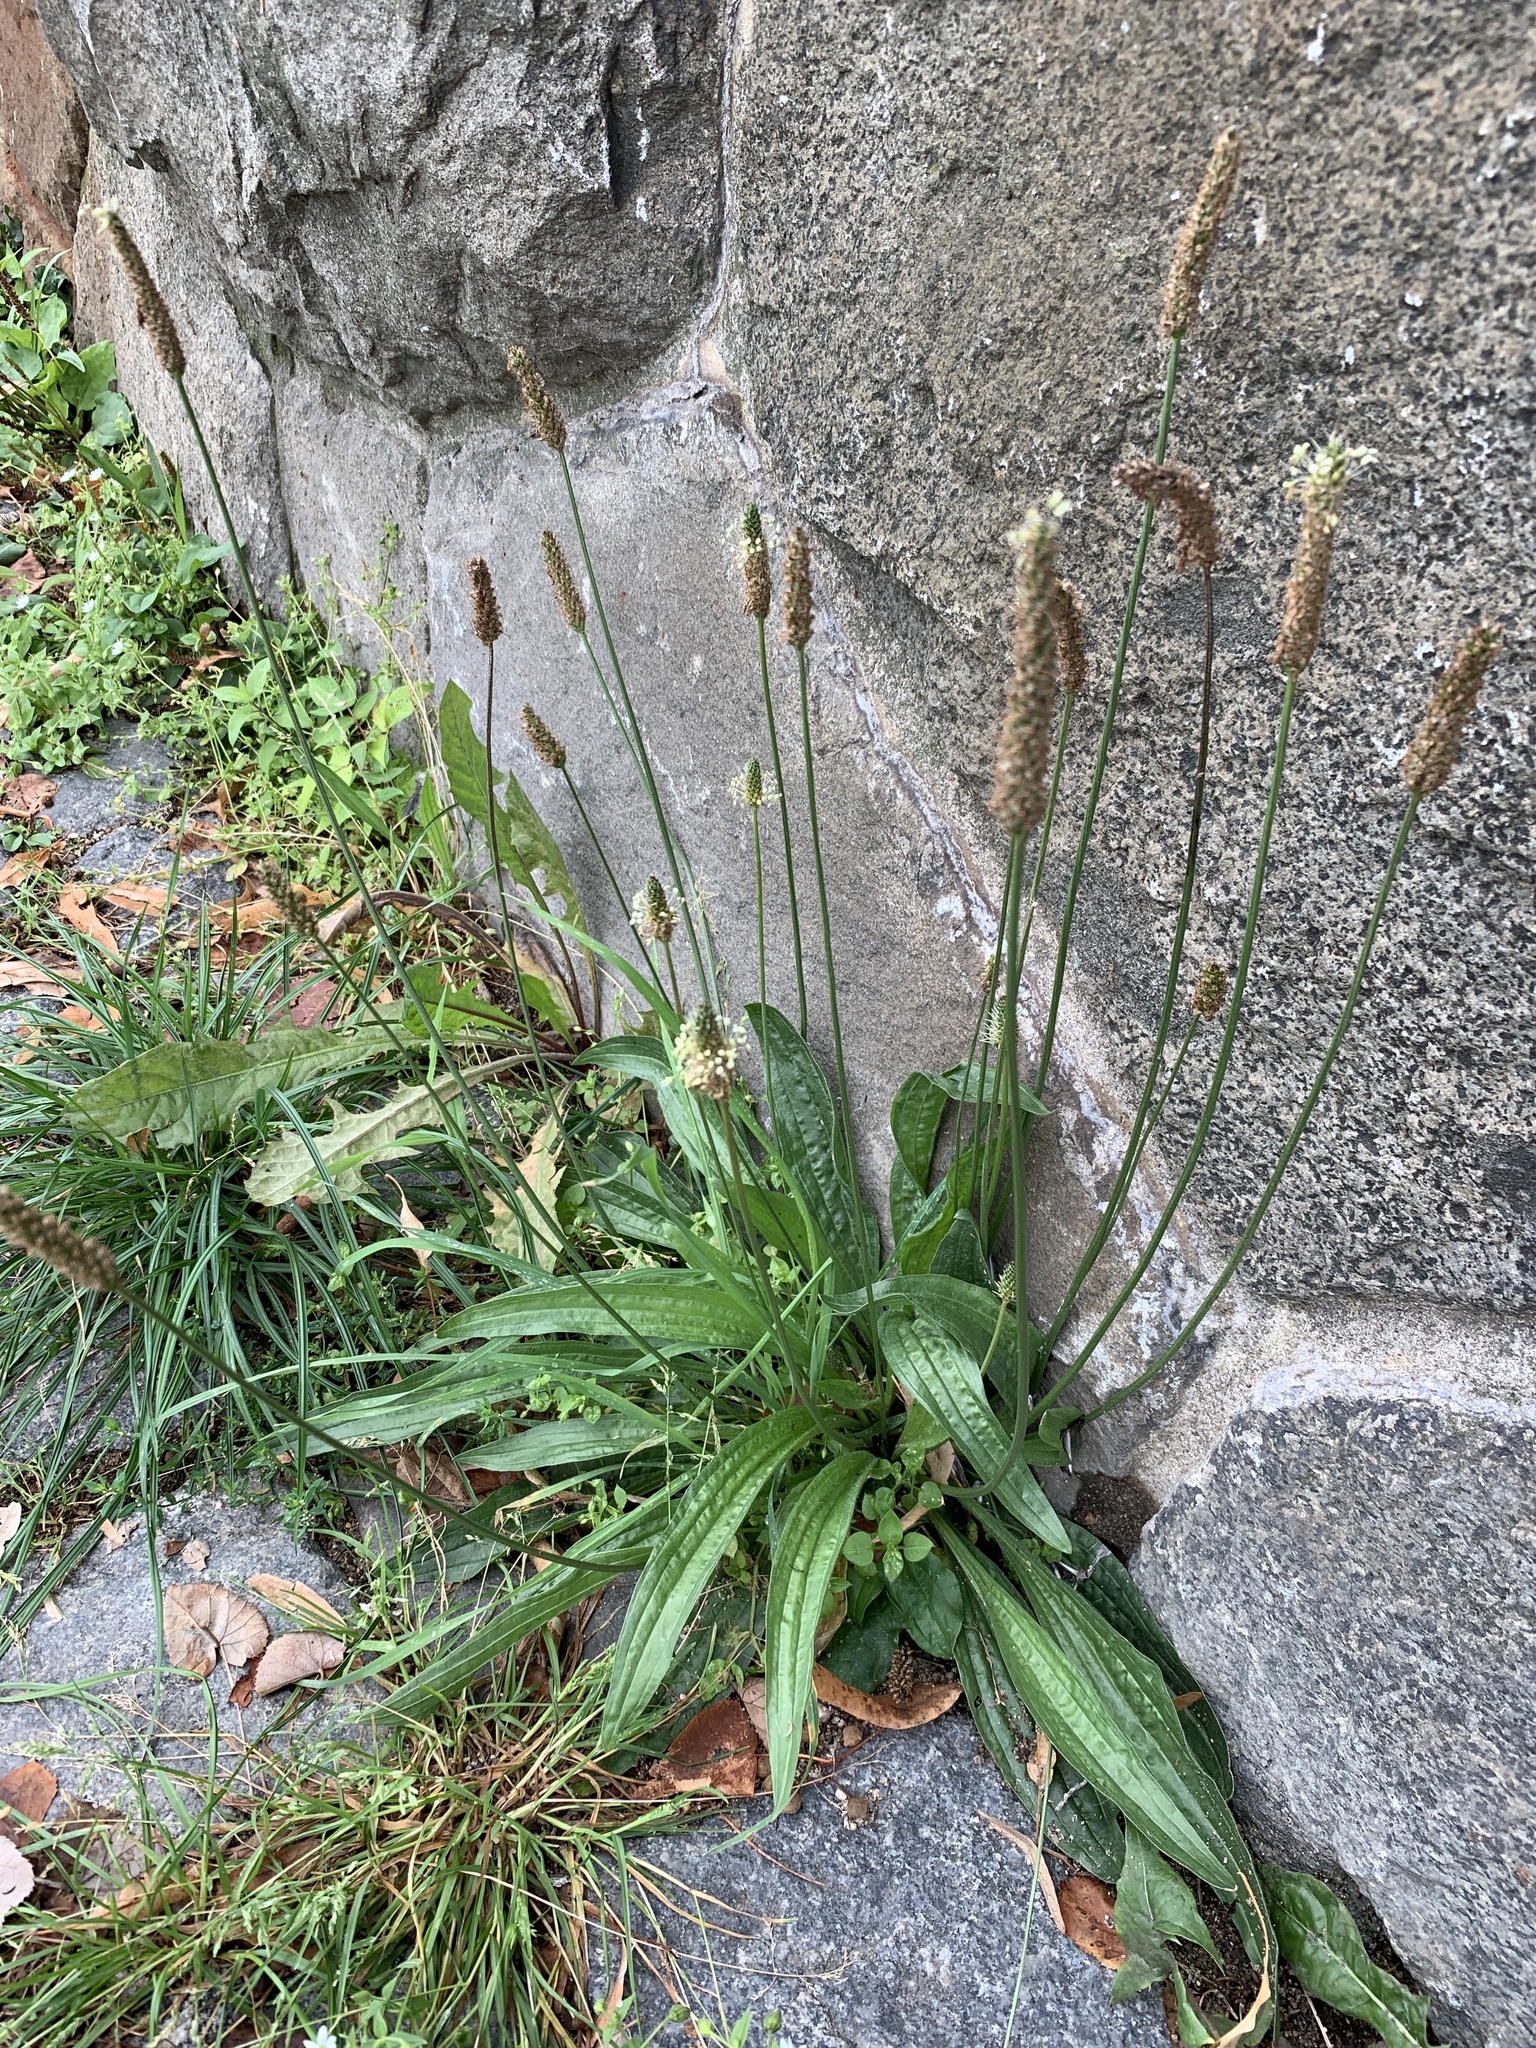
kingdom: Plantae
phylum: Tracheophyta
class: Magnoliopsida
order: Lamiales
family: Plantaginaceae
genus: Plantago
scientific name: Plantago lanceolata
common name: Ribwort plantain
